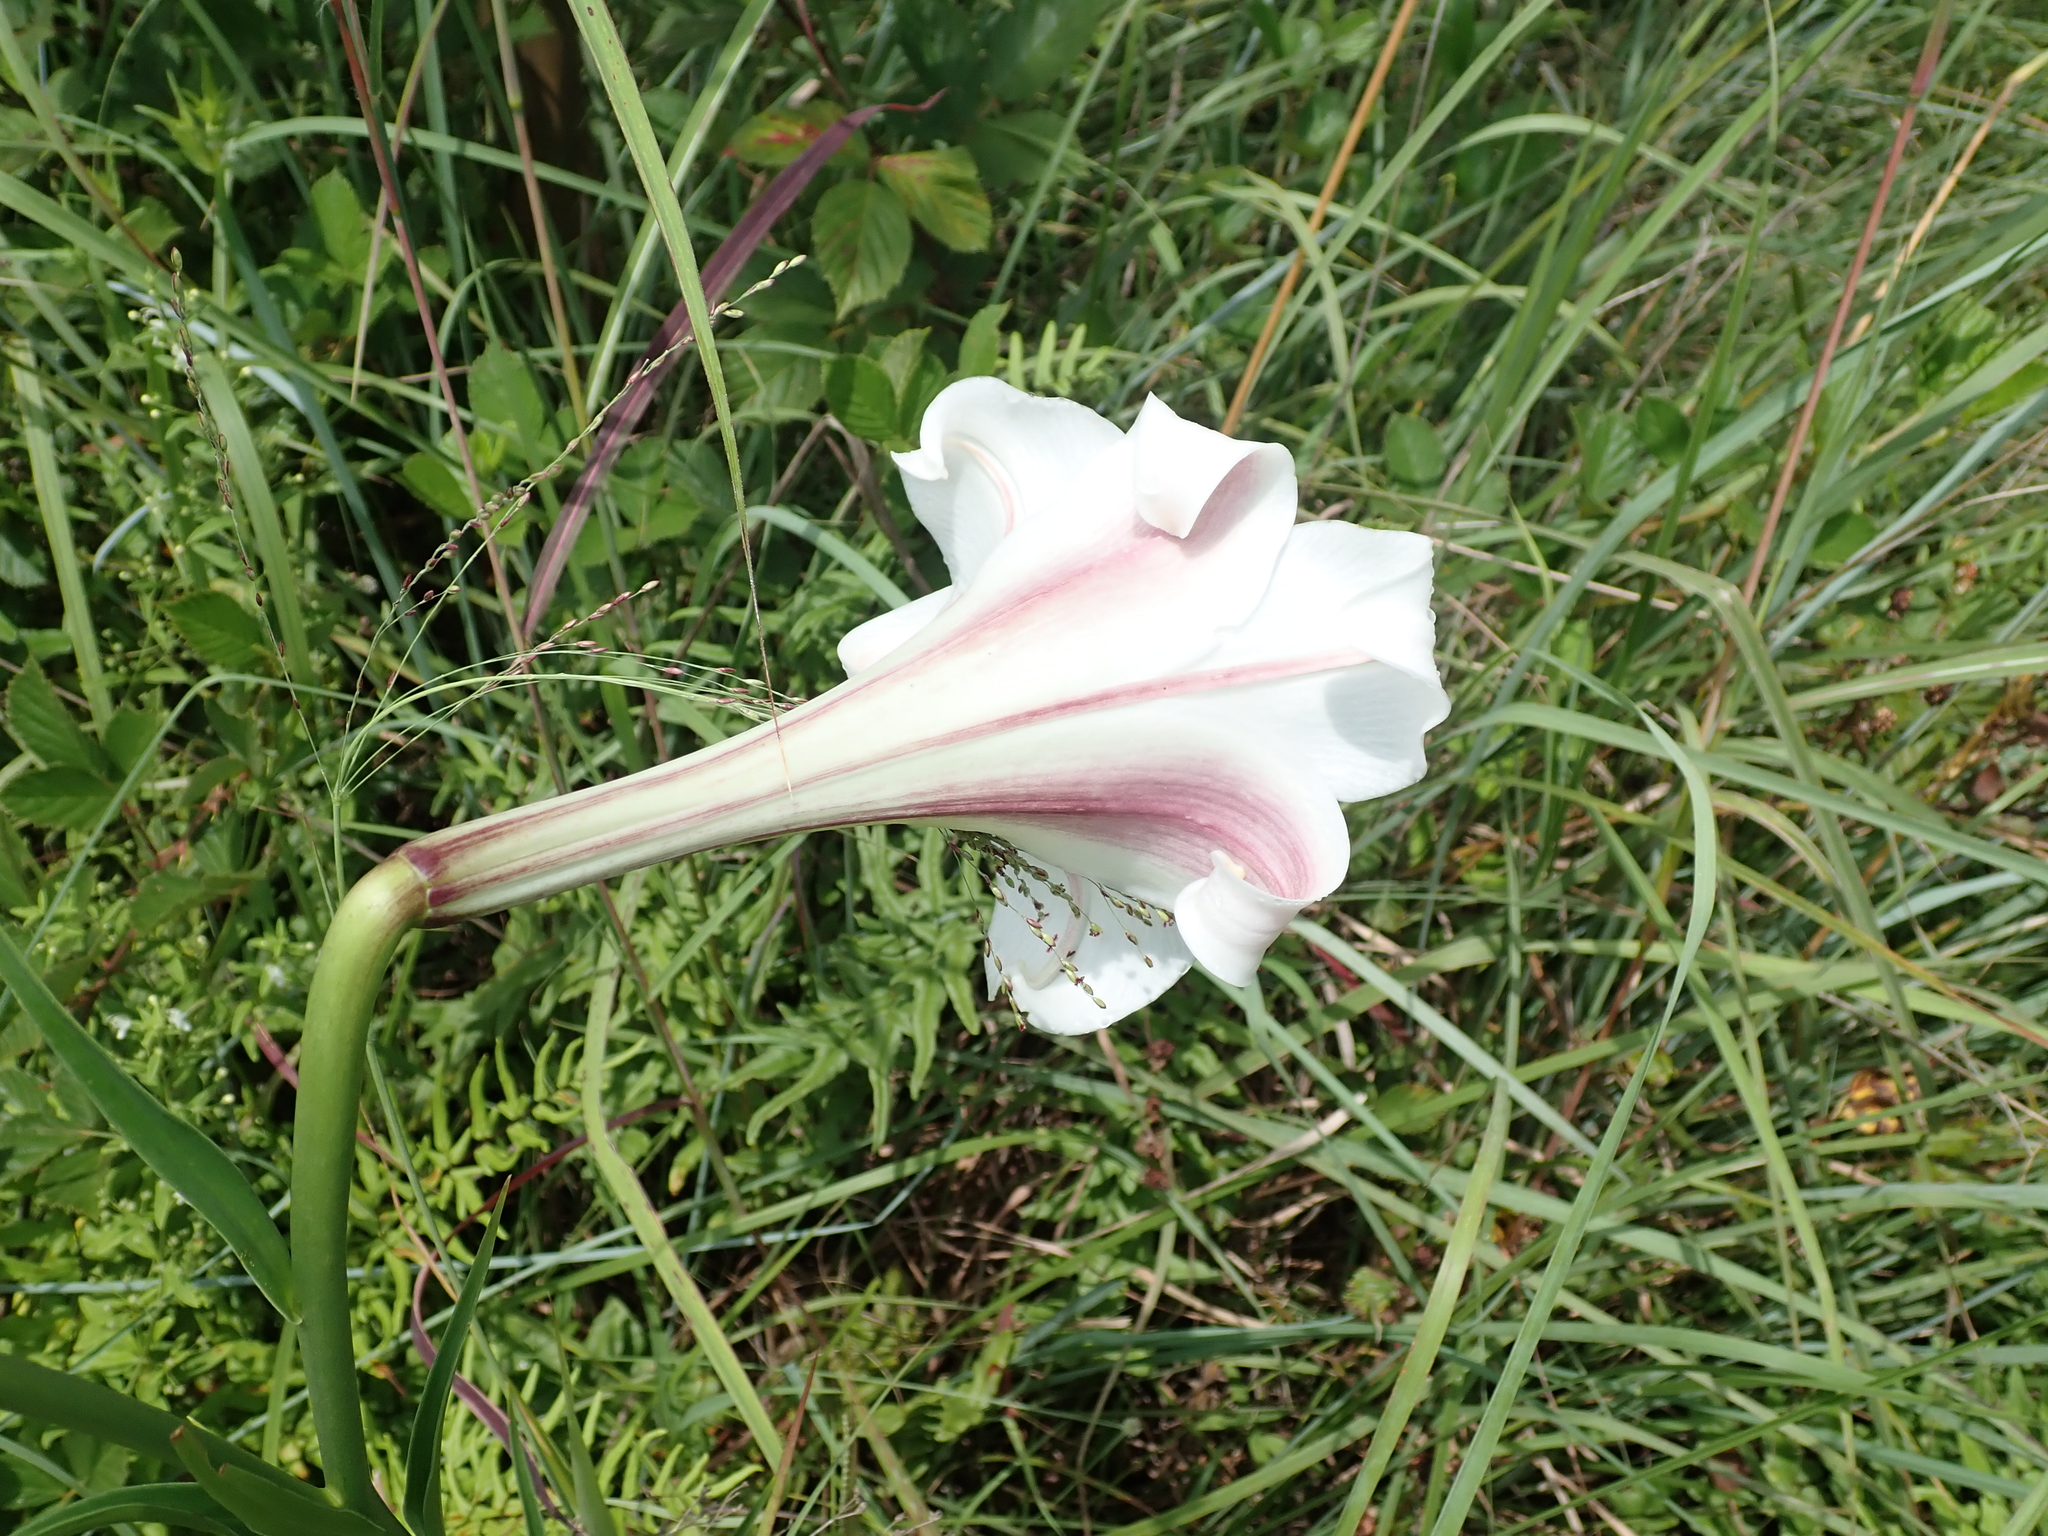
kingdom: Plantae
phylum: Tracheophyta
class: Liliopsida
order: Liliales
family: Liliaceae
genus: Lilium
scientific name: Lilium formosanum
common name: Formosa lily
